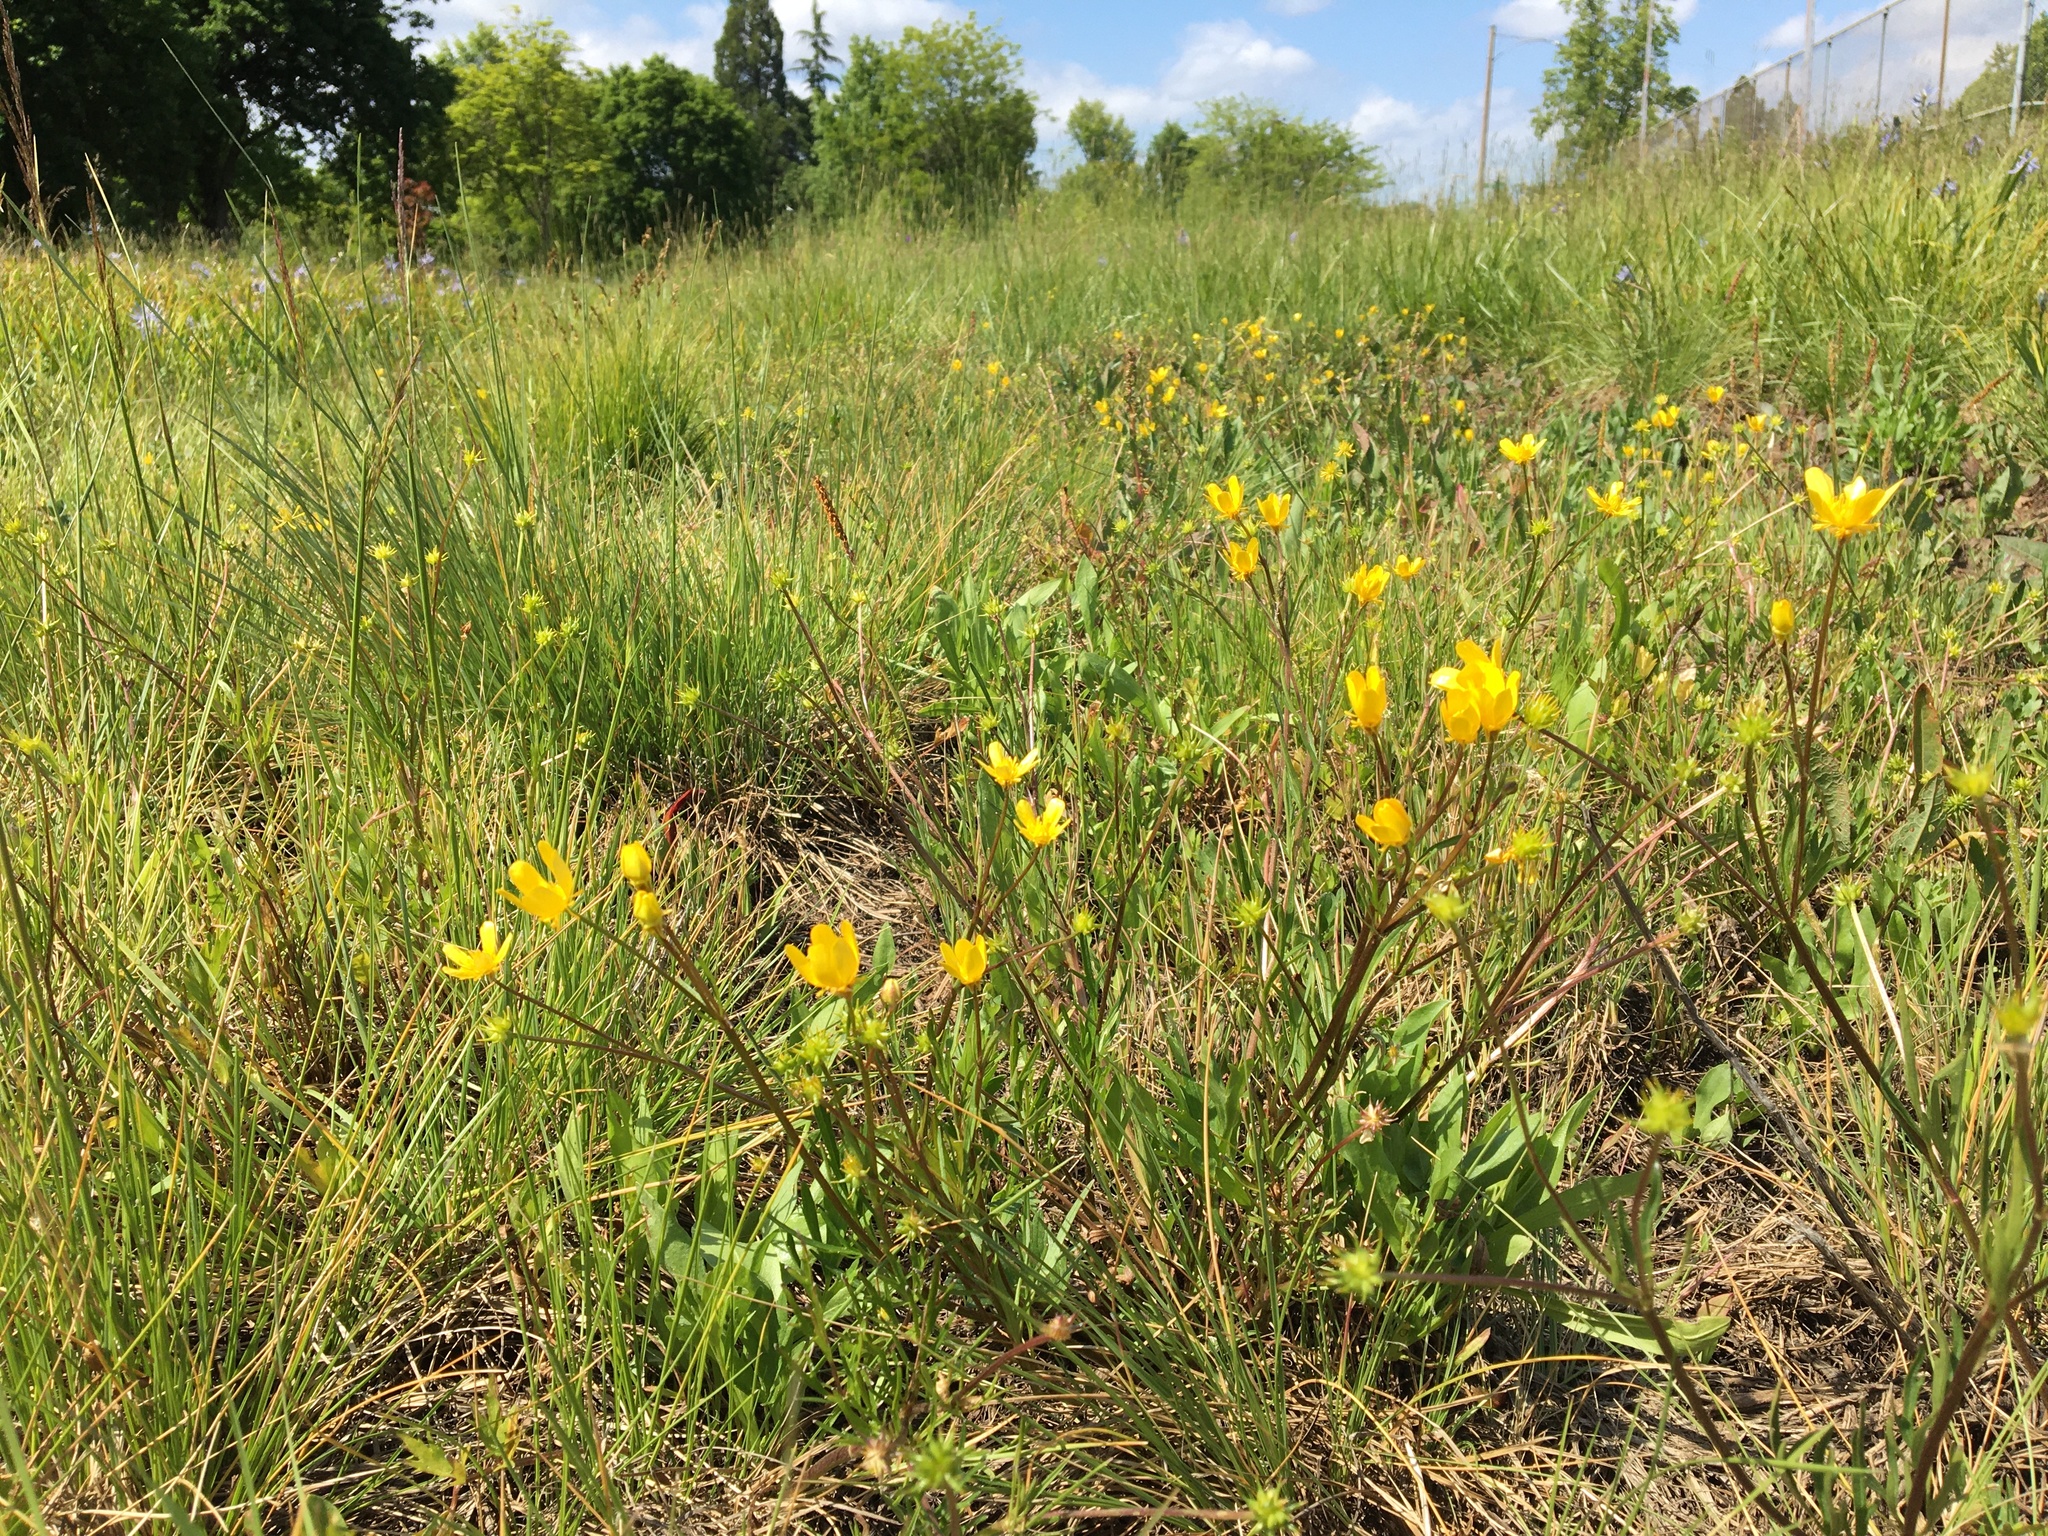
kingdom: Plantae
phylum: Tracheophyta
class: Magnoliopsida
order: Ranunculales
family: Ranunculaceae
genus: Ranunculus
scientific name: Ranunculus orthorhynchus
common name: Straight-beak buttercup
